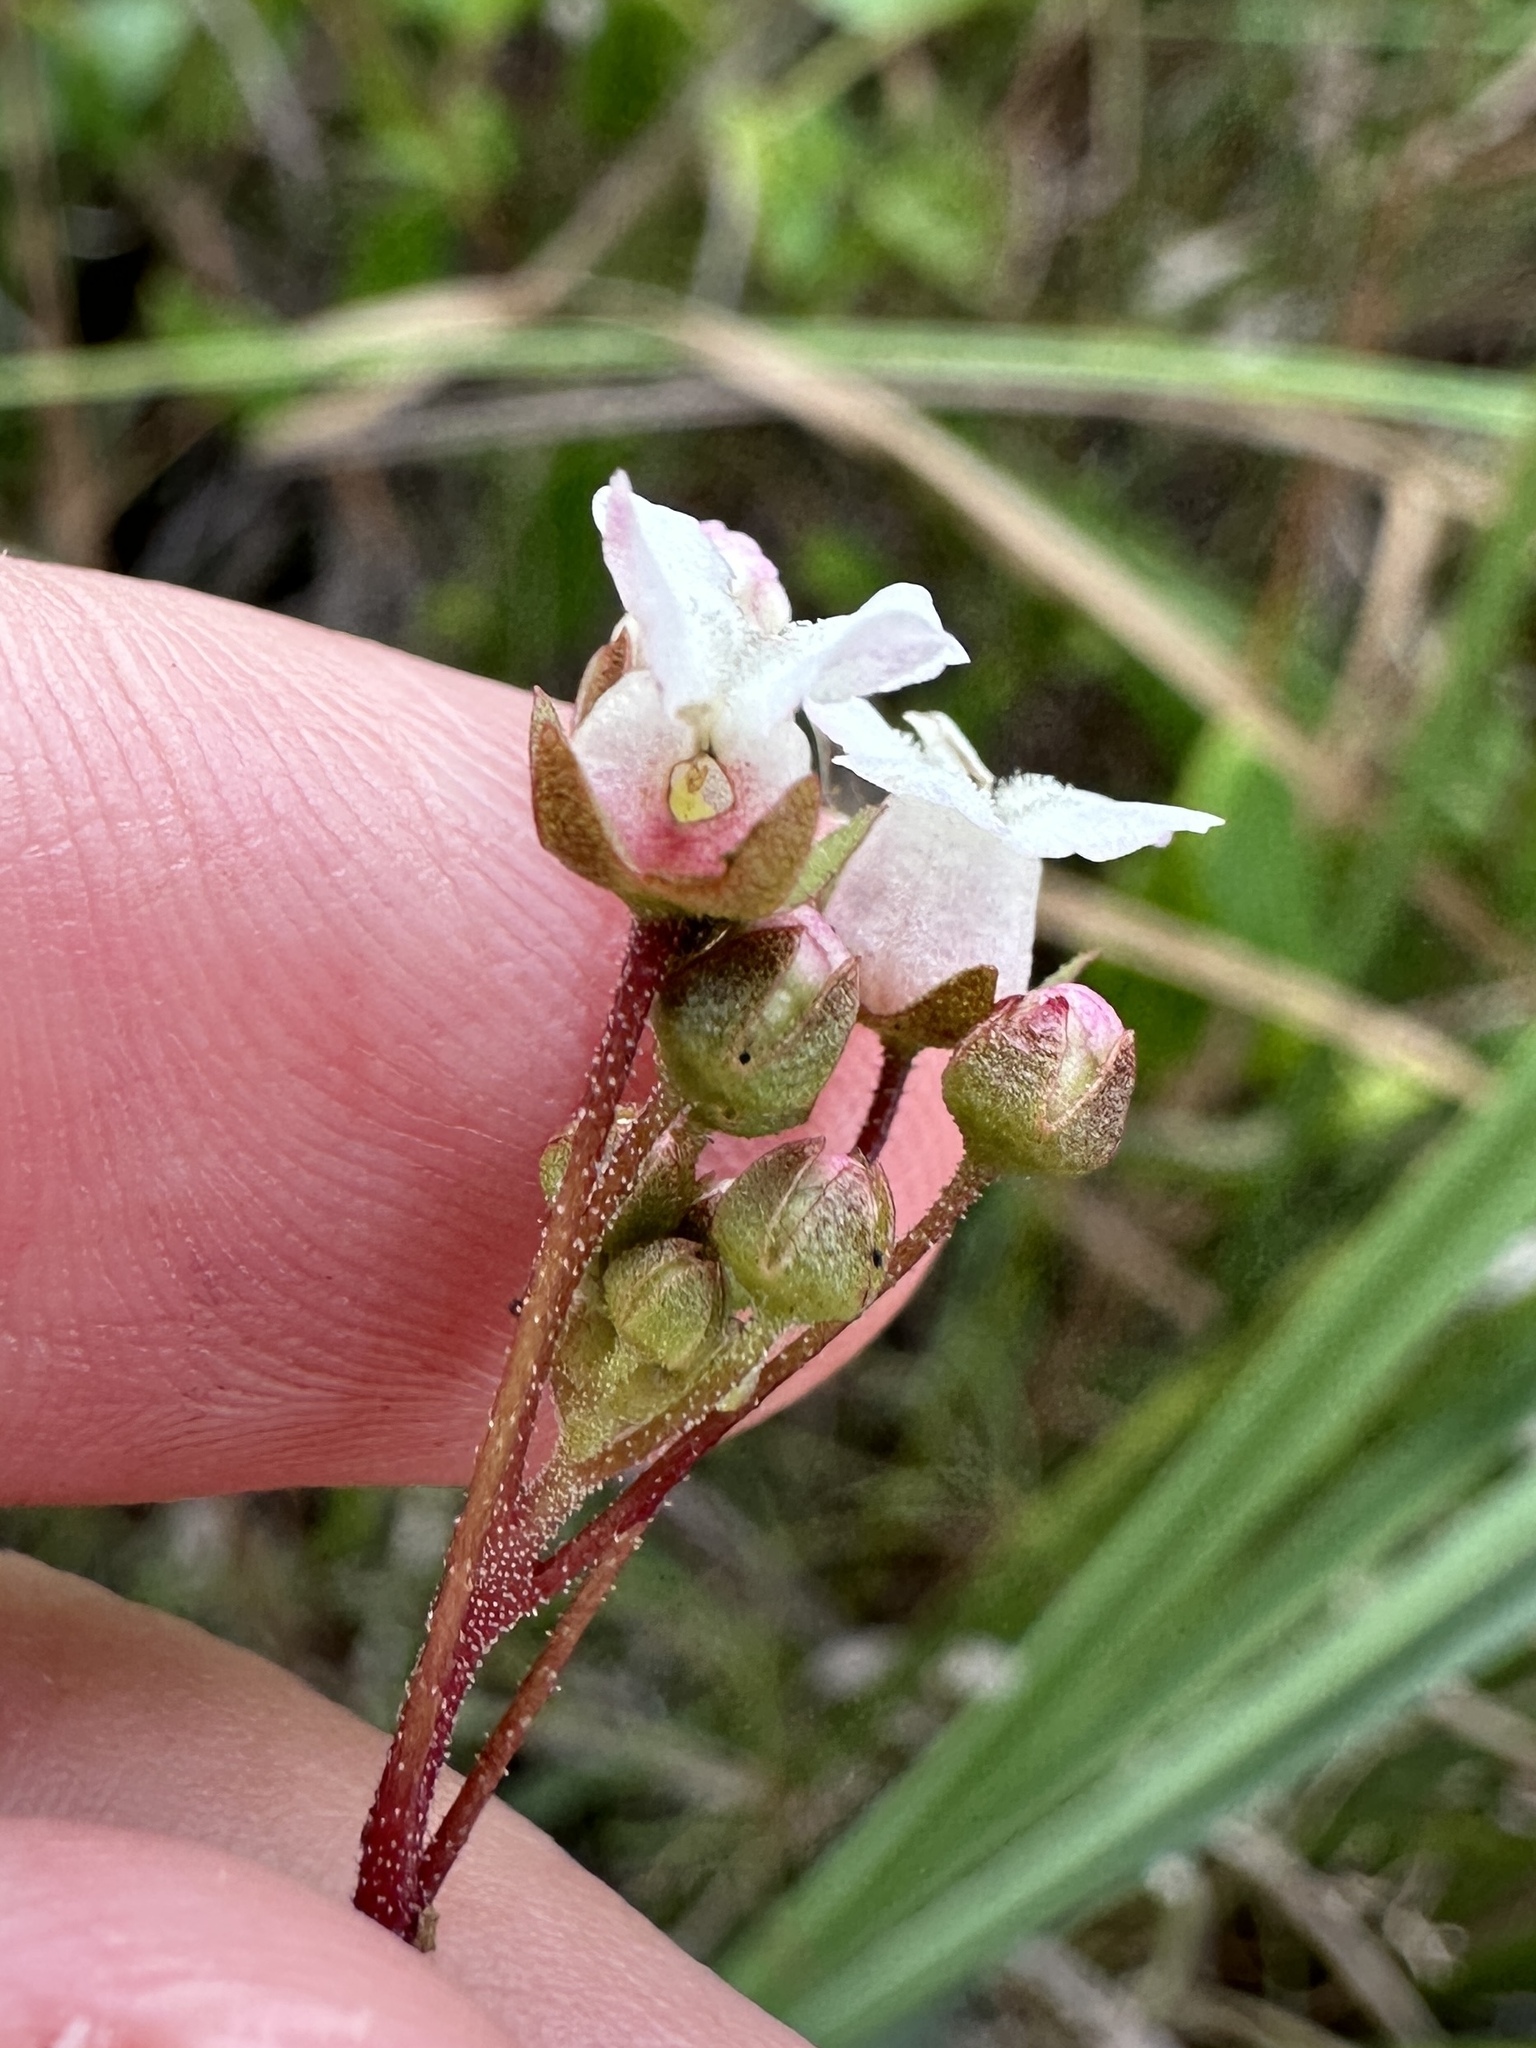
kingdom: Plantae
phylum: Tracheophyta
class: Magnoliopsida
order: Ericales
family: Primulaceae
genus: Samolus
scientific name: Samolus ebracteatus
